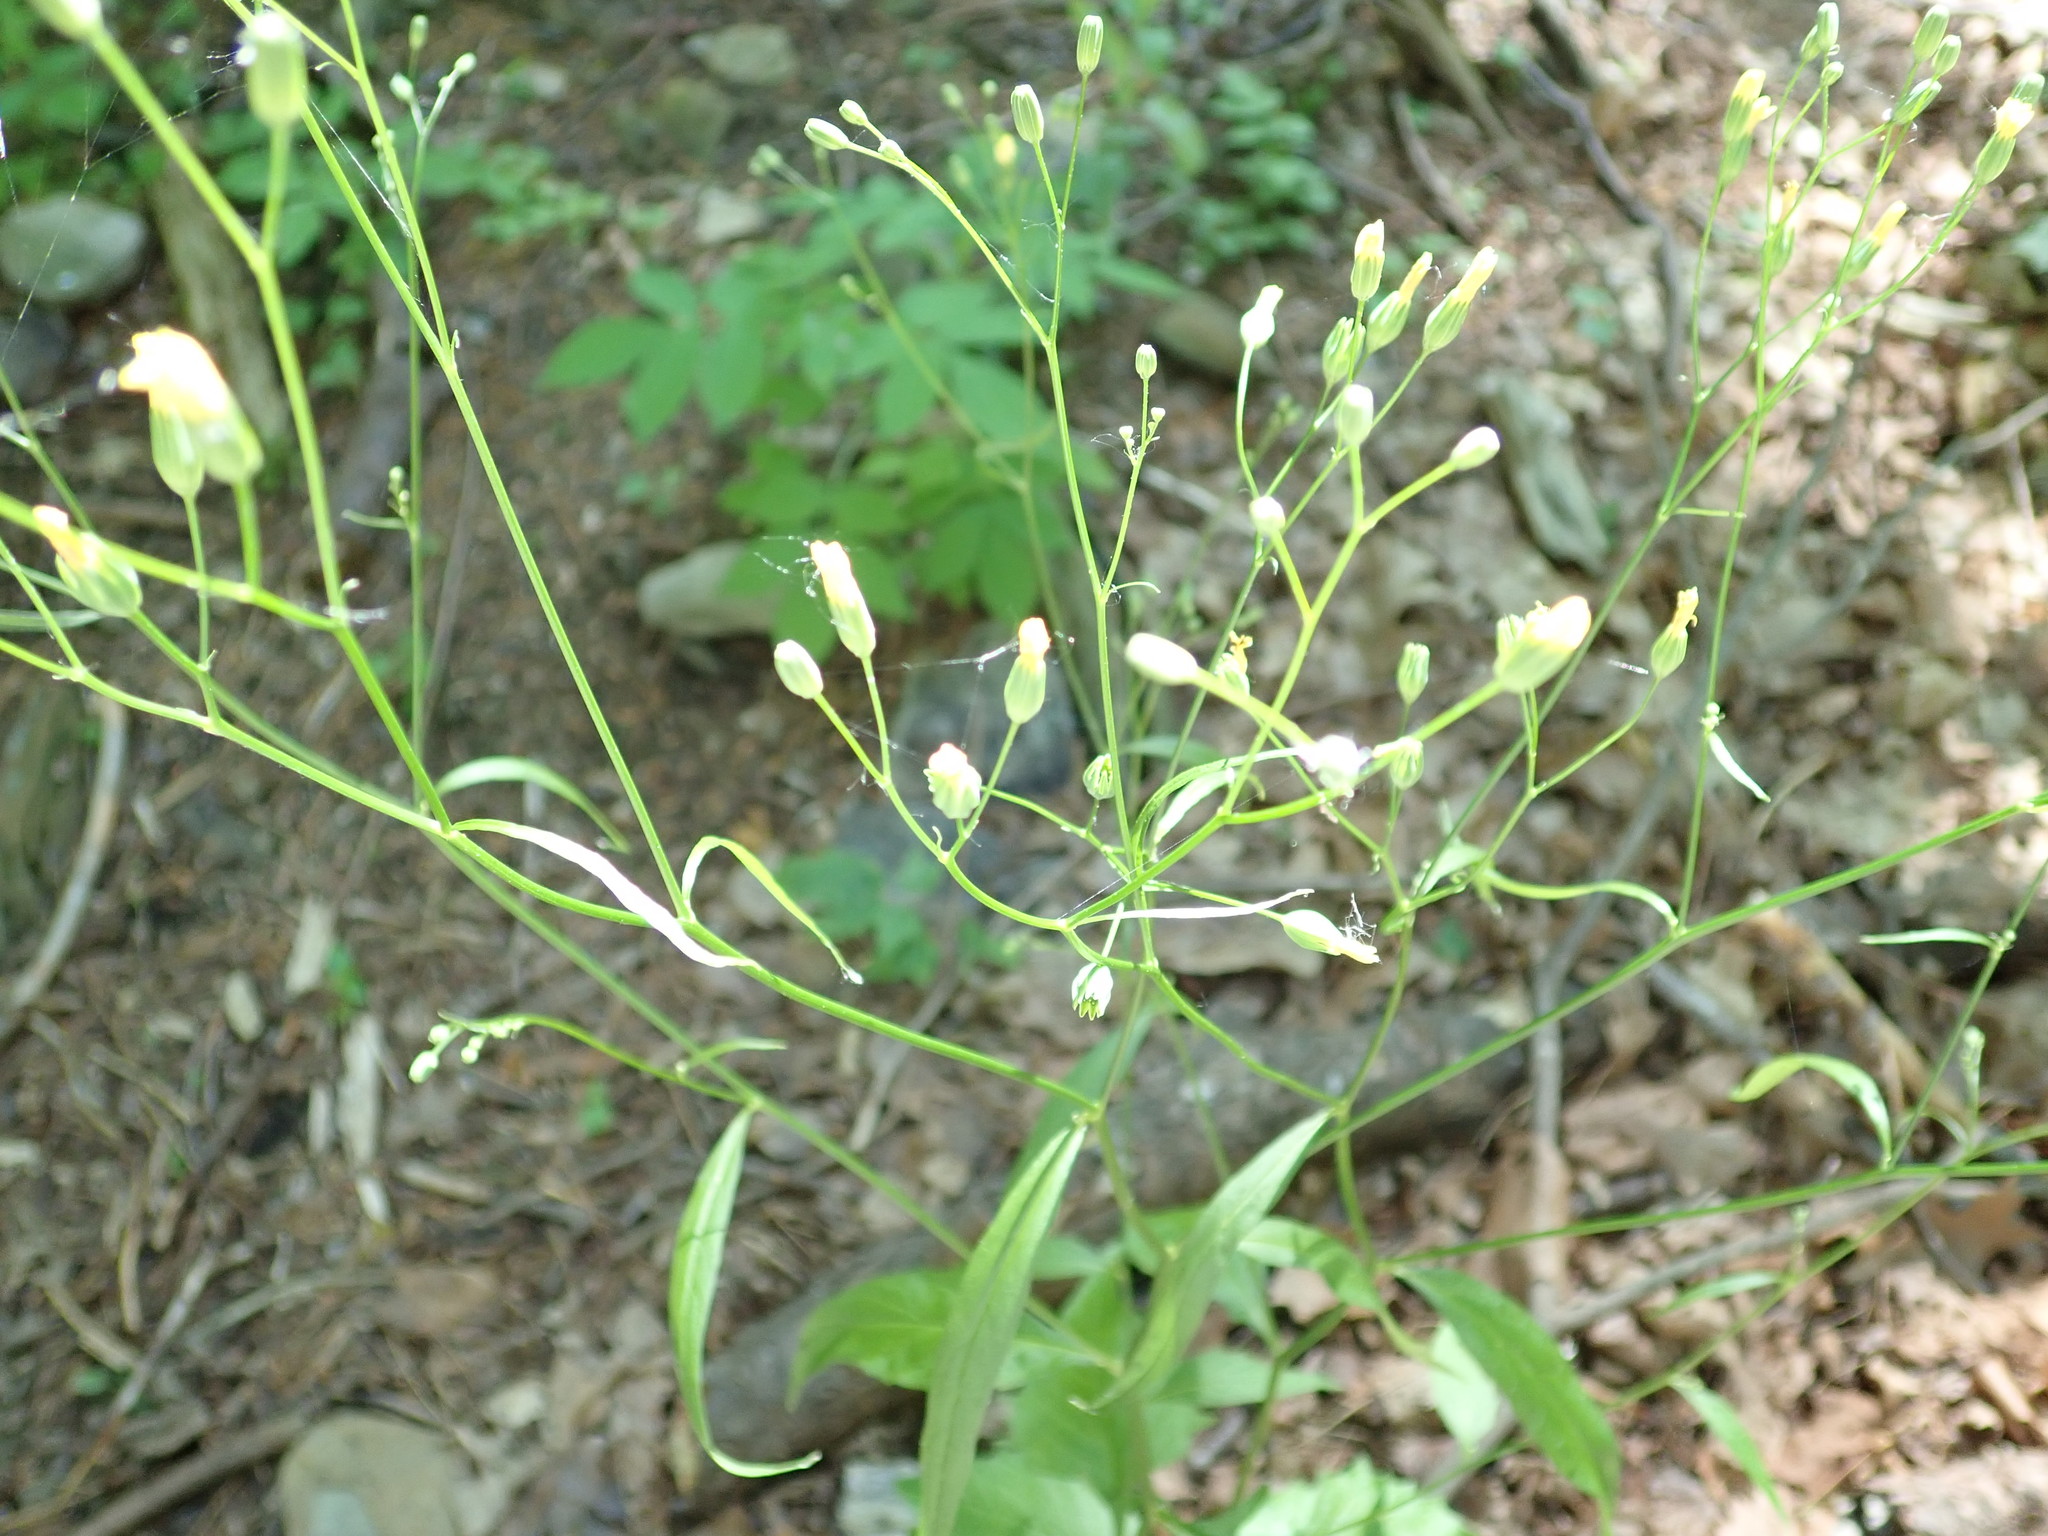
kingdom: Plantae
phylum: Tracheophyta
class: Magnoliopsida
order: Asterales
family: Asteraceae
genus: Lapsana
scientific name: Lapsana communis
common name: Nipplewort
